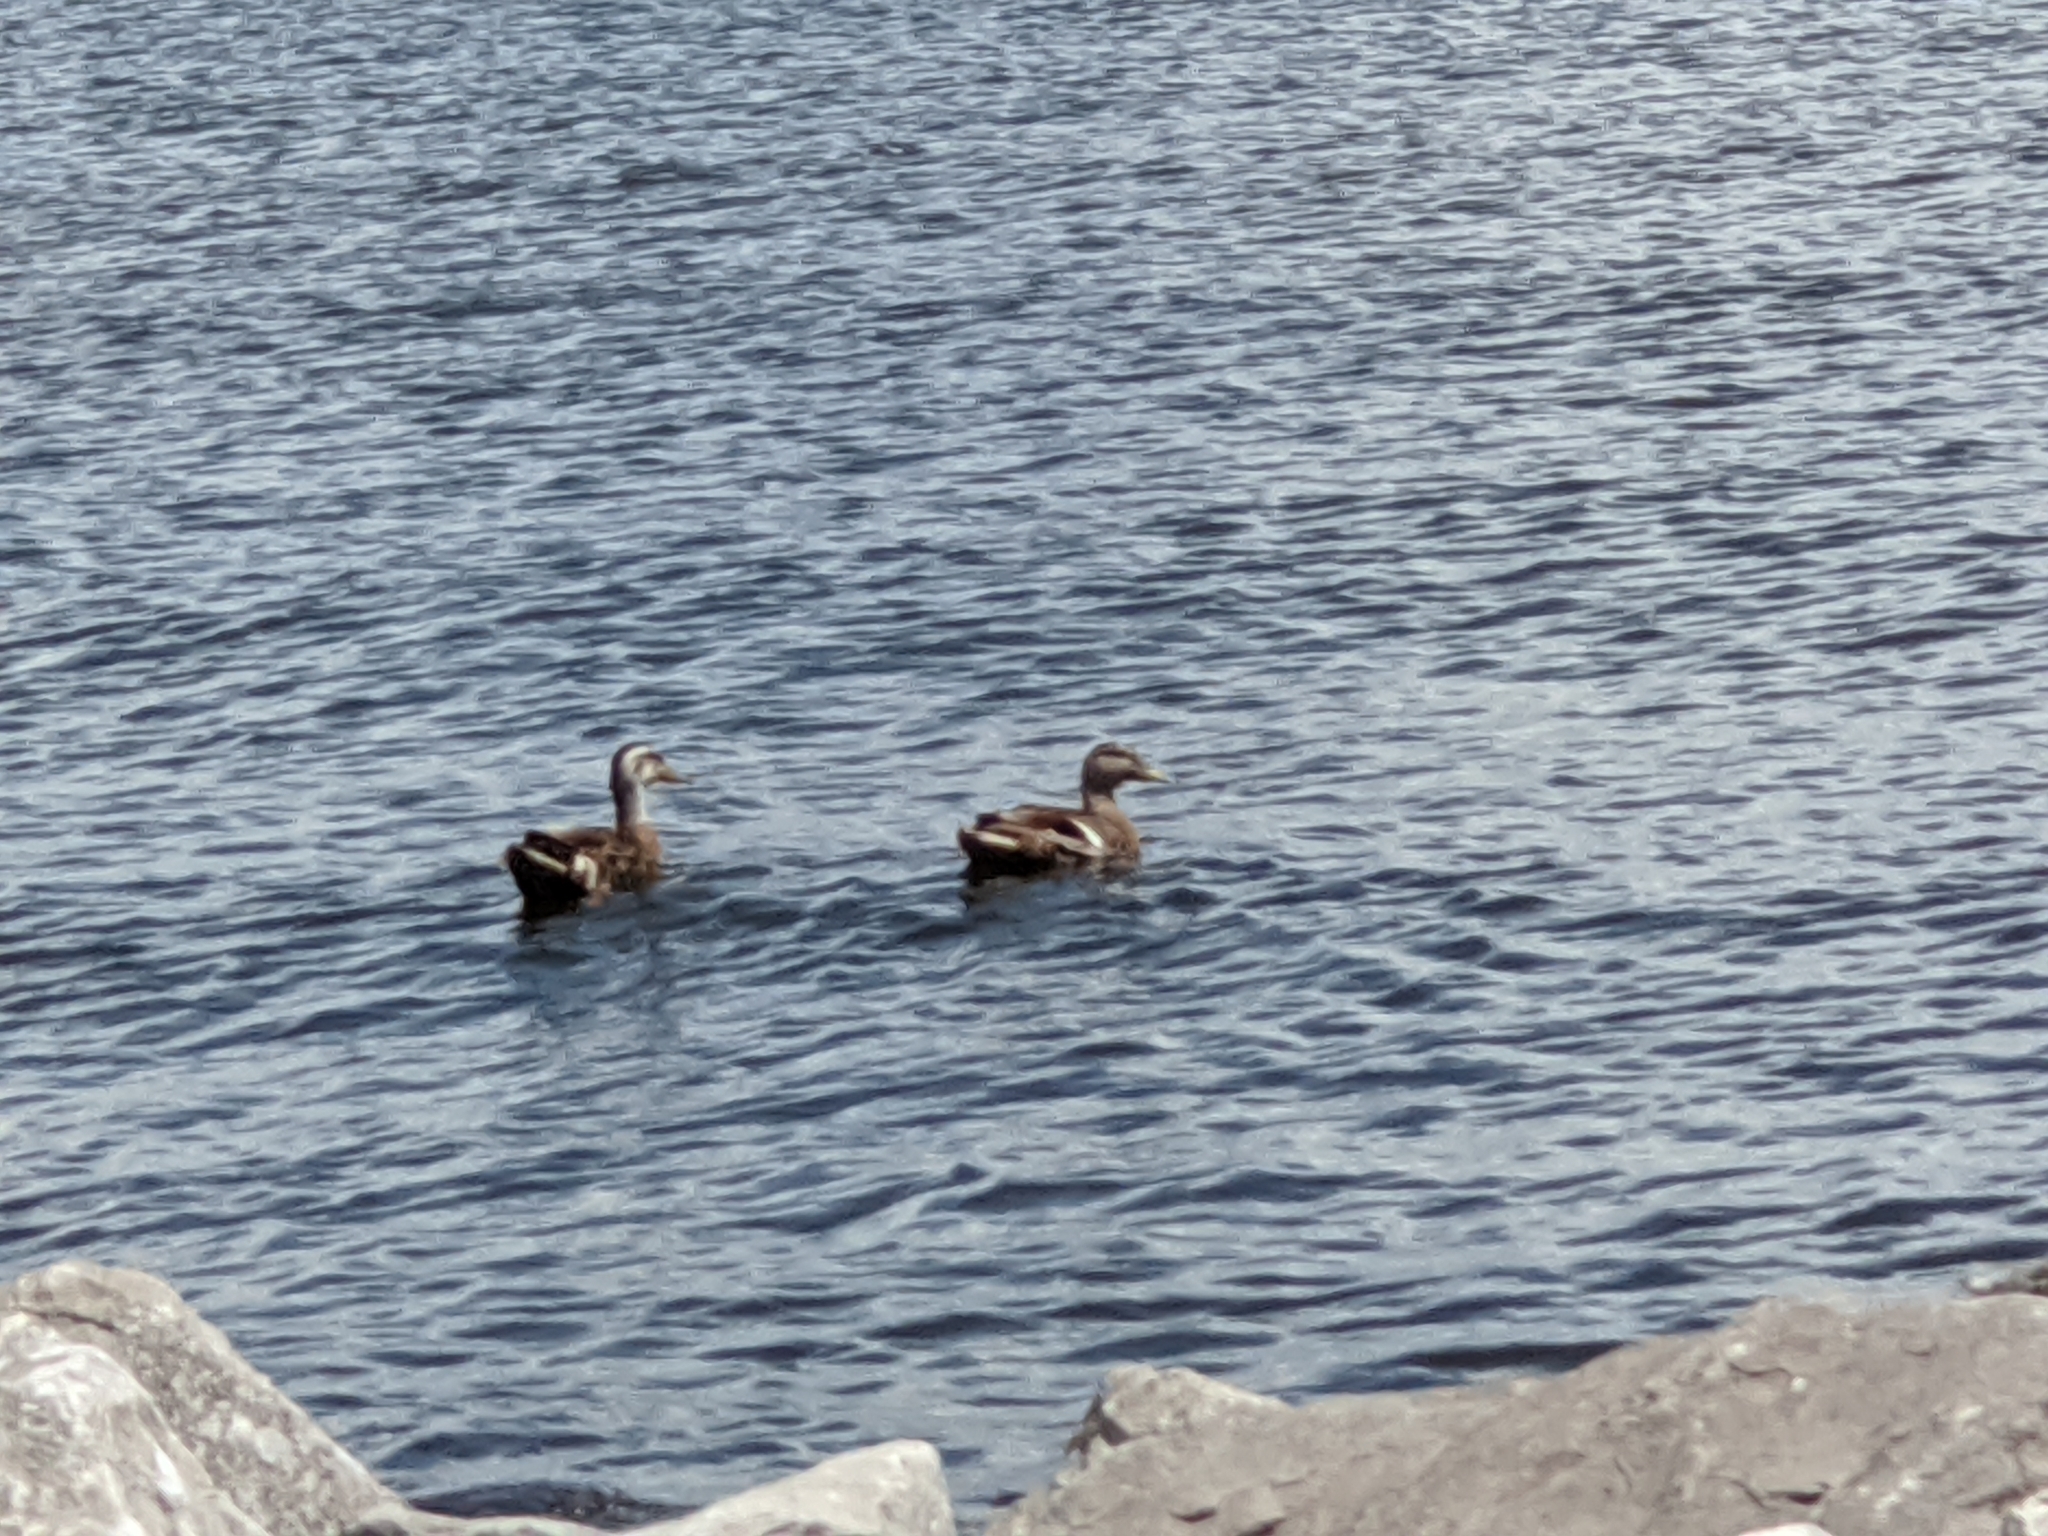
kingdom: Animalia
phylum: Chordata
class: Aves
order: Anseriformes
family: Anatidae
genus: Anas
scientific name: Anas platyrhynchos
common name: Mallard
